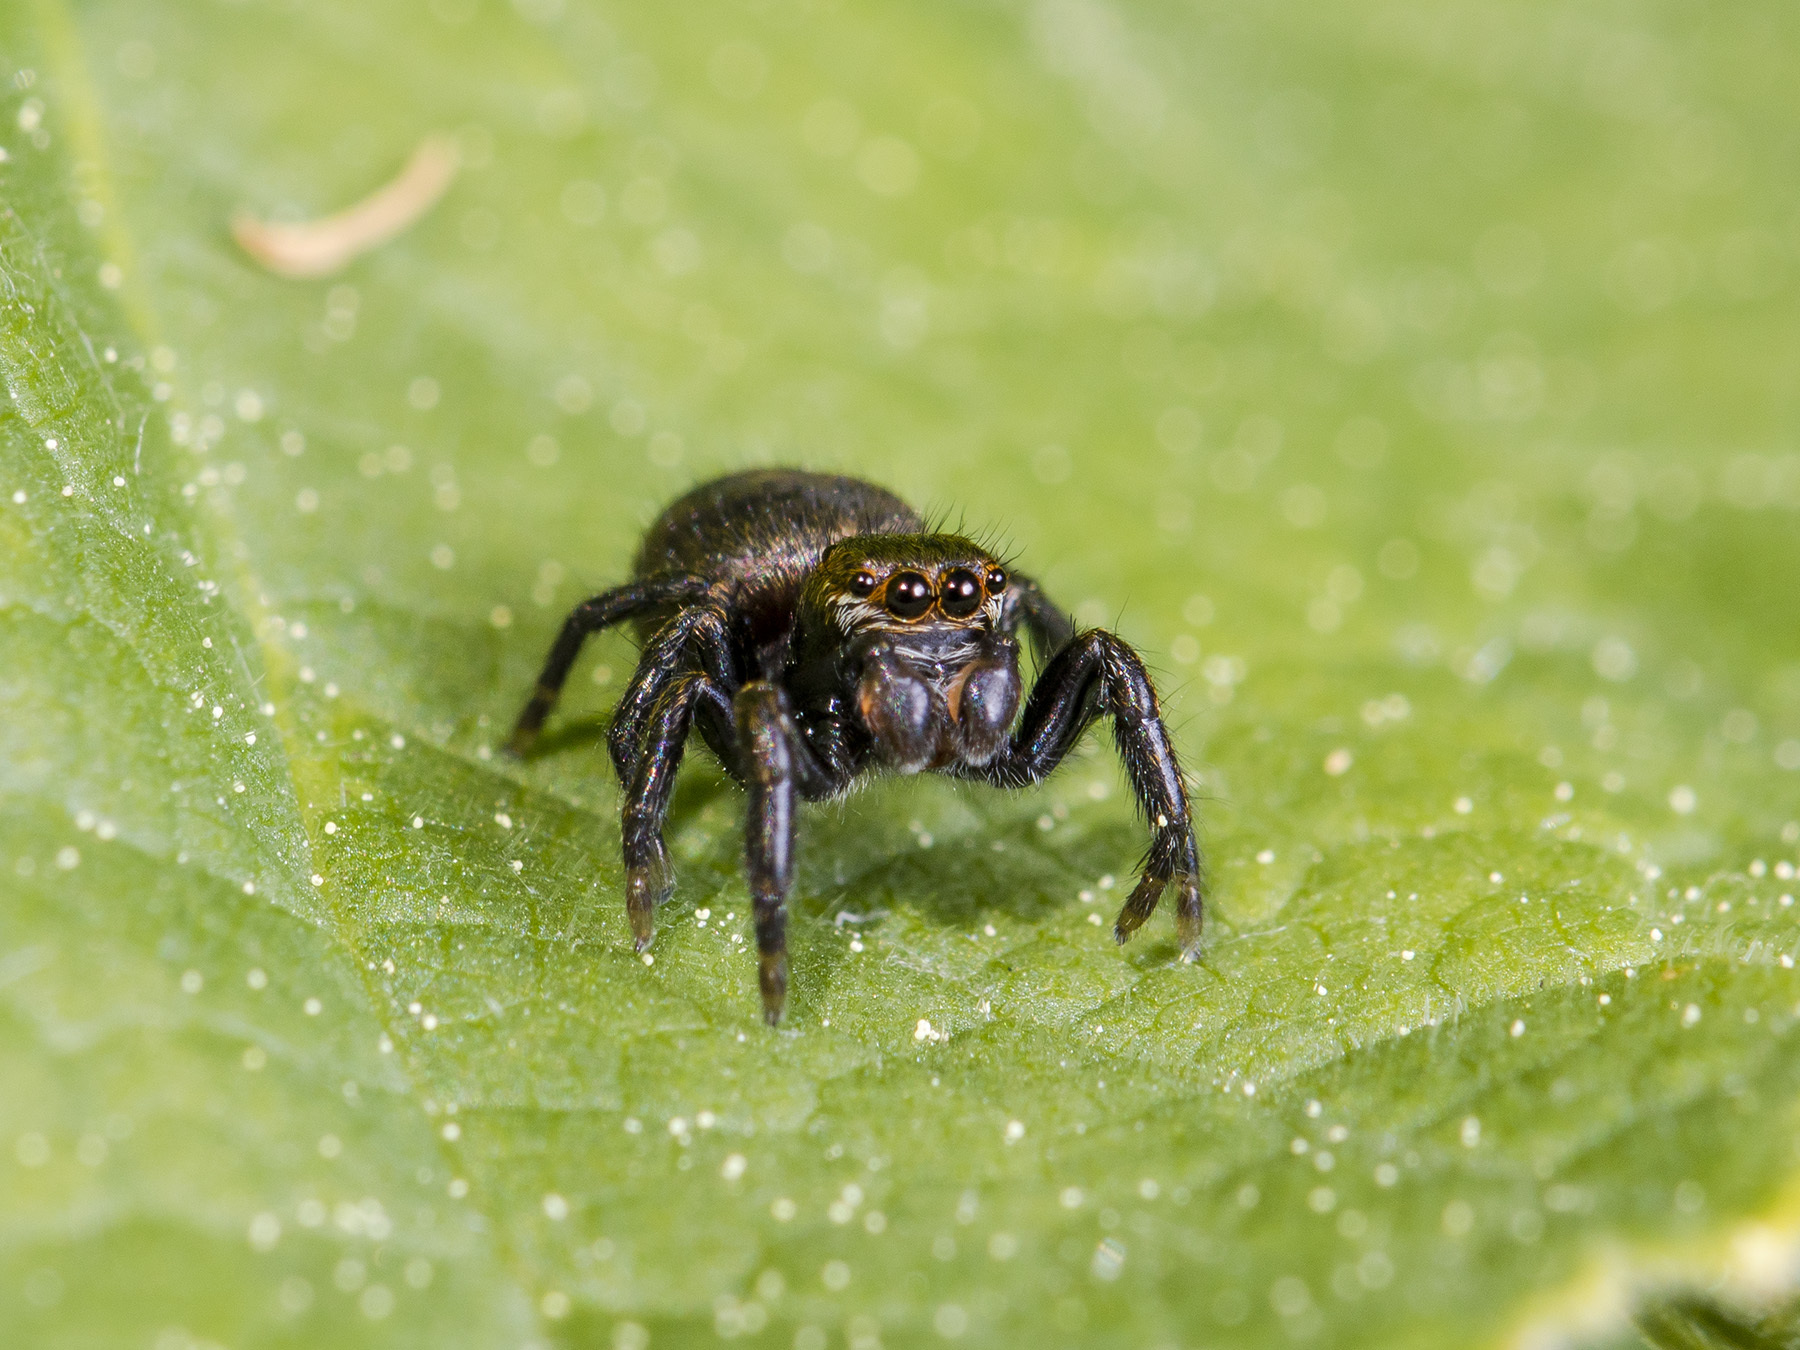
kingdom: Animalia
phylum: Arthropoda
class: Arachnida
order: Araneae
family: Salticidae
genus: Evarcha
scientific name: Evarcha arcuata
